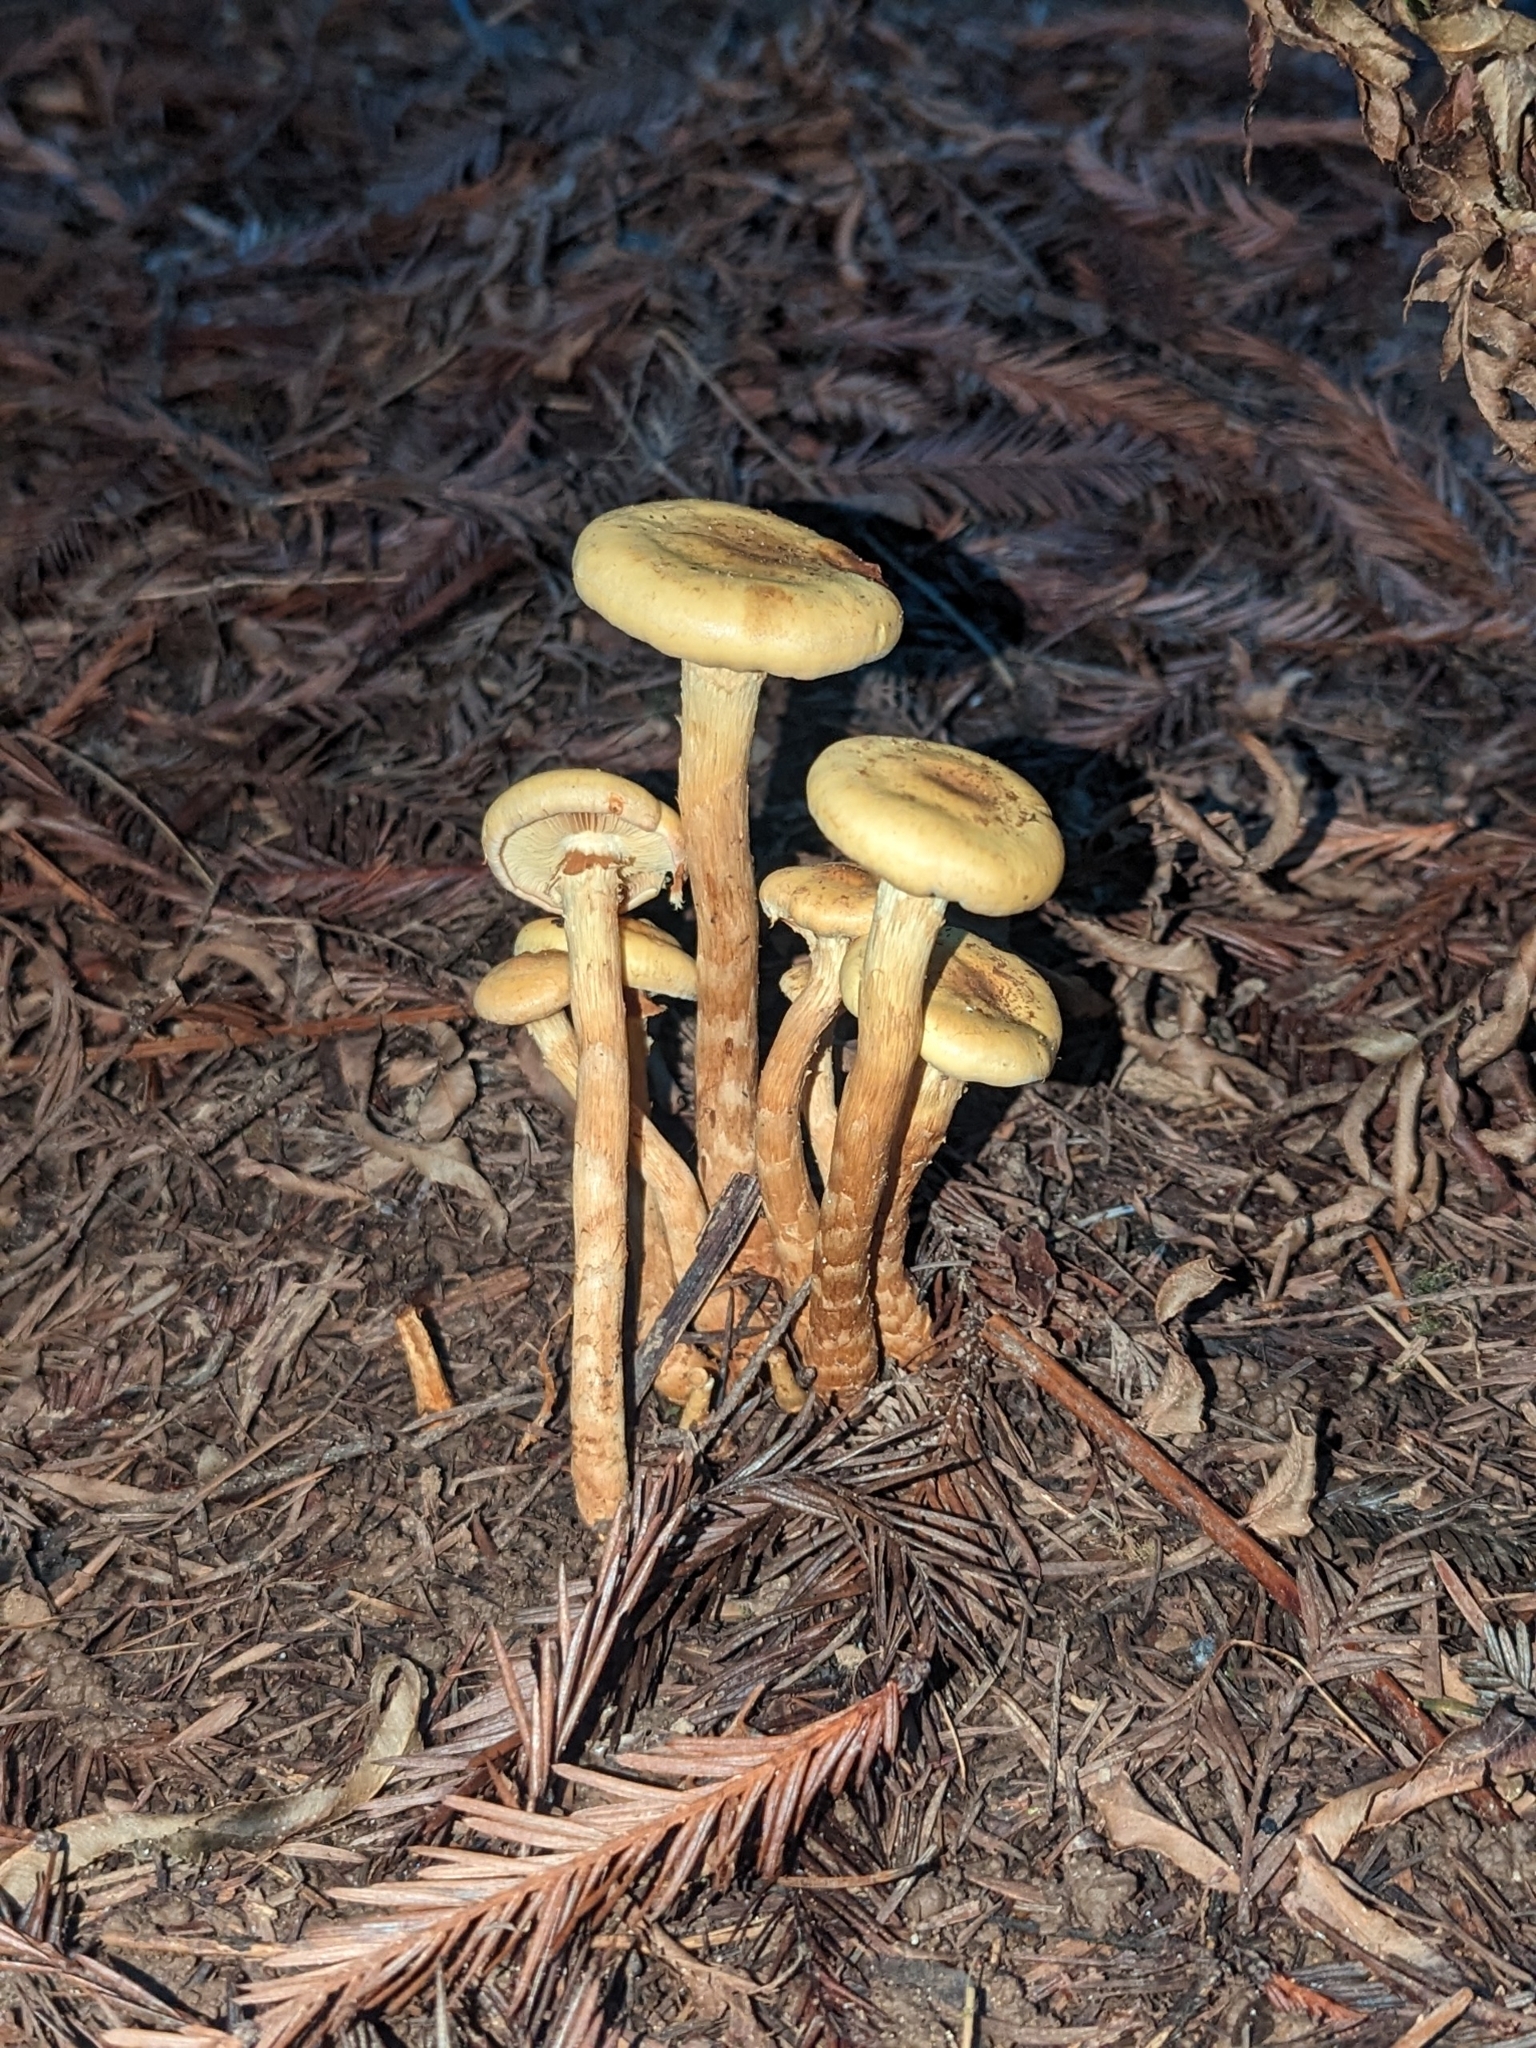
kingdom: Fungi
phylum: Basidiomycota
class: Agaricomycetes
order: Agaricales
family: Strophariaceae
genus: Pholiota
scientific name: Pholiota terrestris
